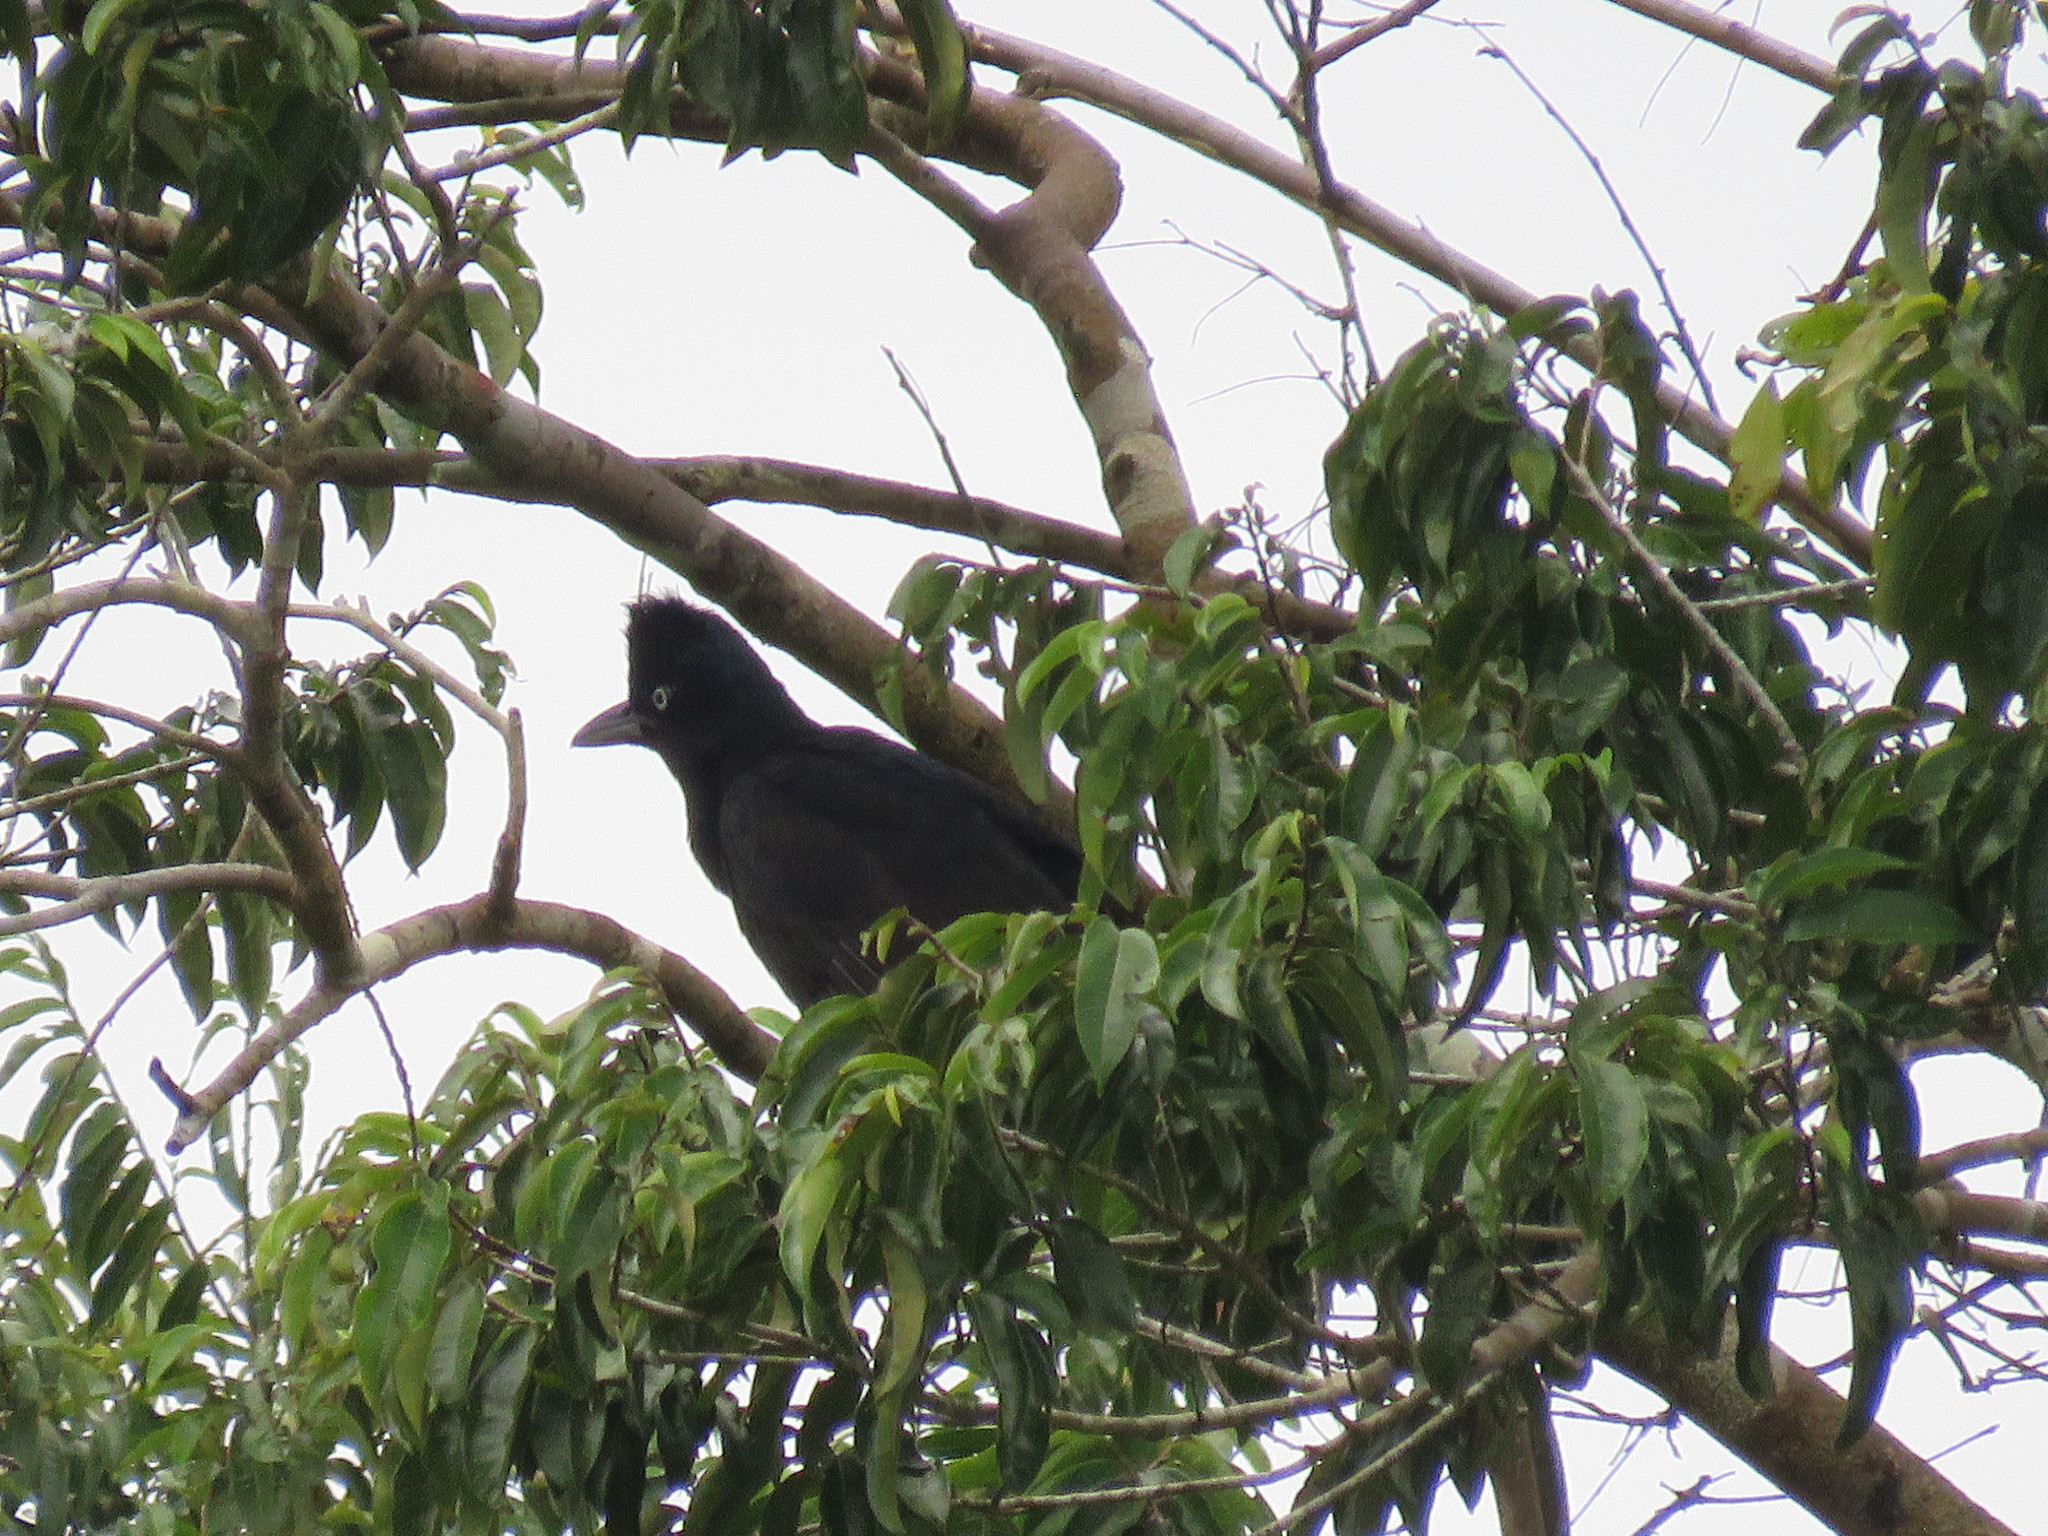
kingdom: Animalia
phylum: Chordata
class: Aves
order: Passeriformes
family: Cotingidae
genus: Cephalopterus
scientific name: Cephalopterus ornatus
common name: Amazonian umbrellabird
